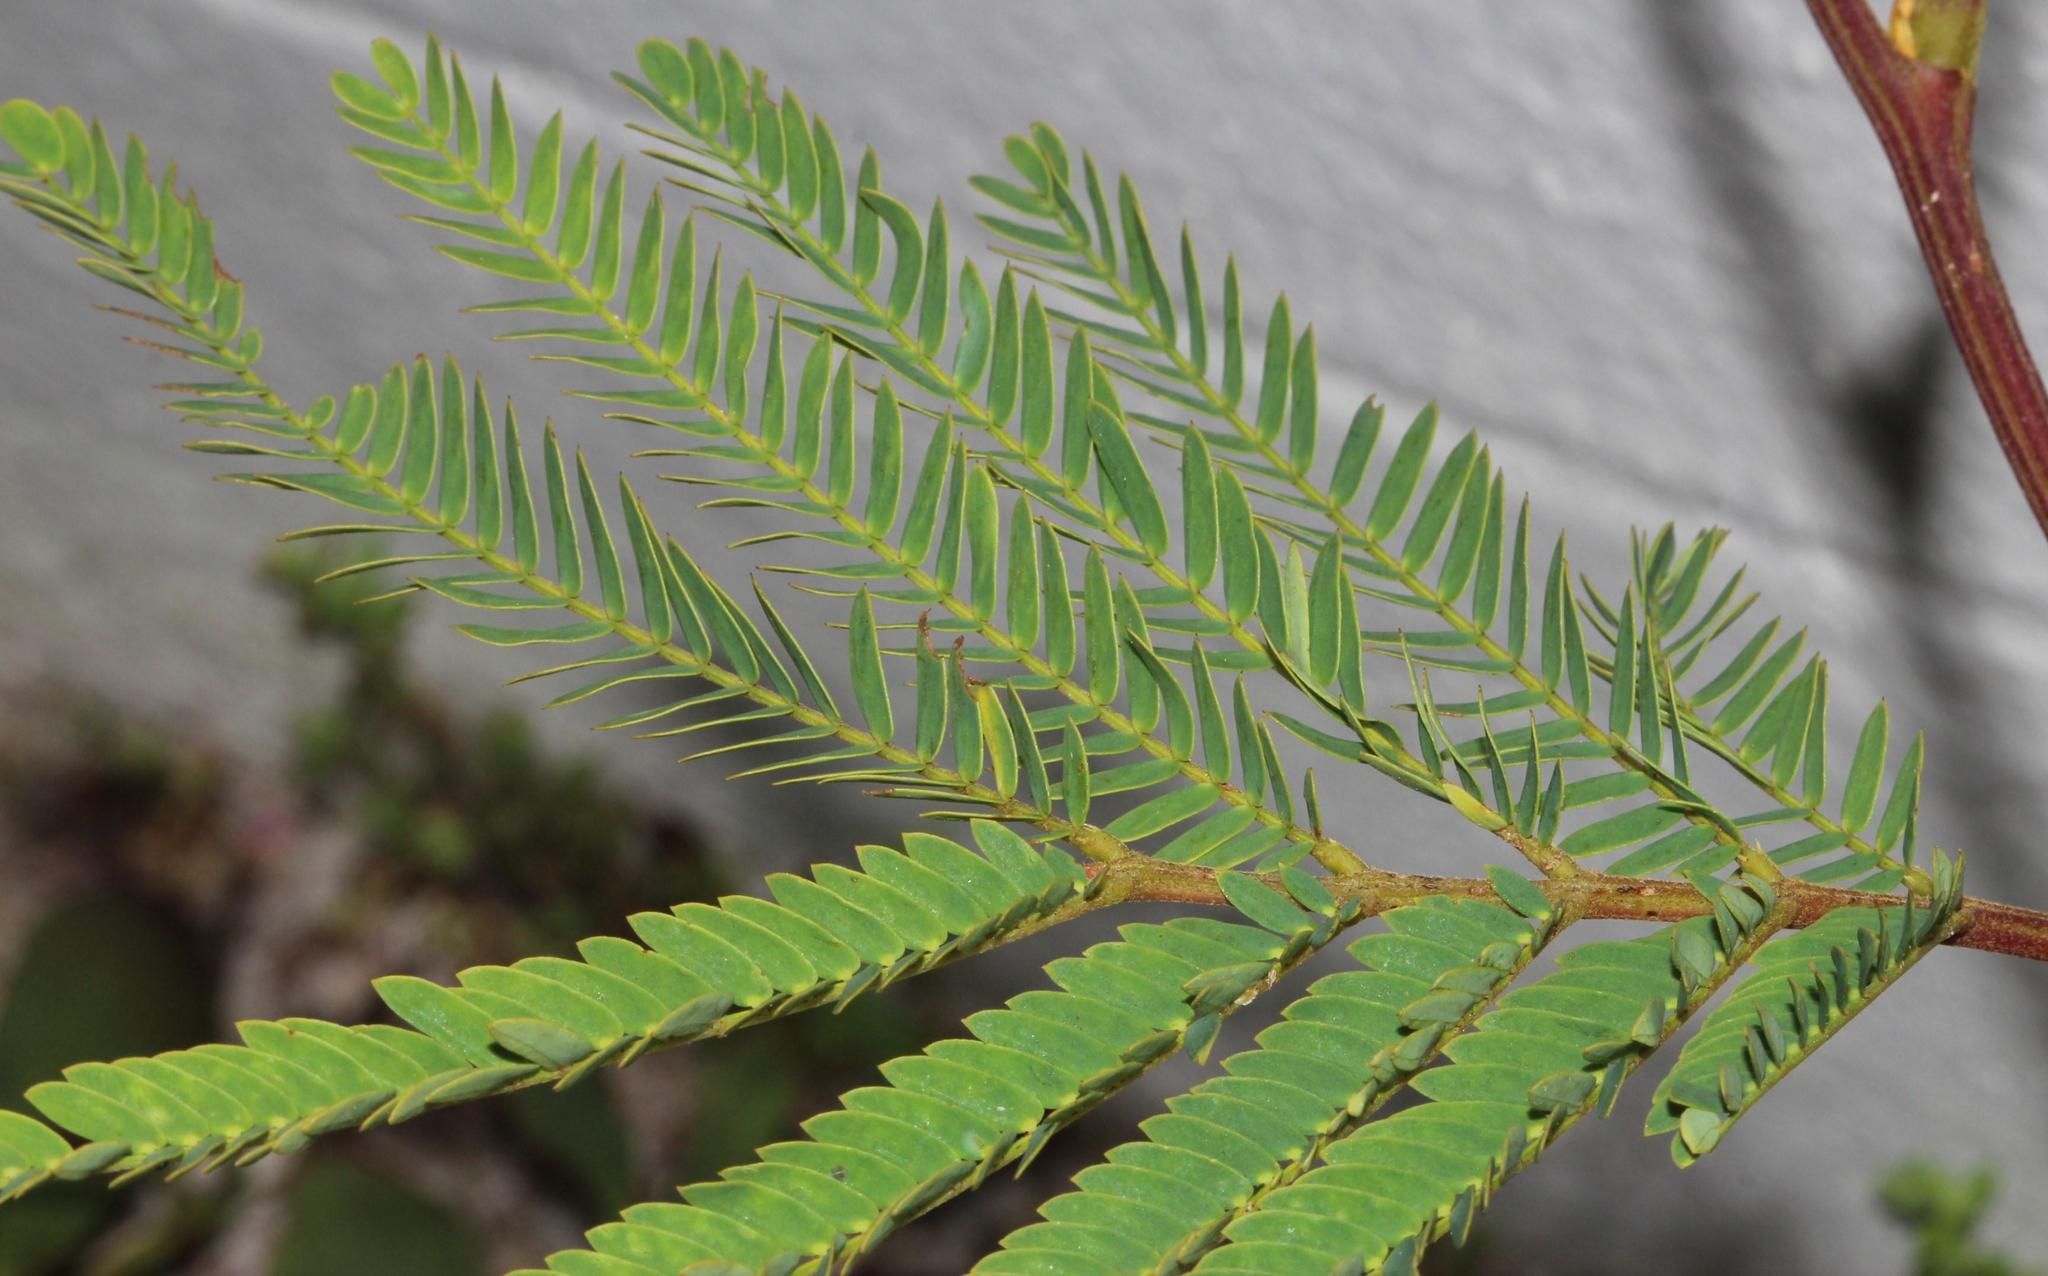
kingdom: Plantae
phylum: Tracheophyta
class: Magnoliopsida
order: Fabales
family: Fabaceae
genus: Acacia
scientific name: Acacia elata
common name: Cedar wattle
